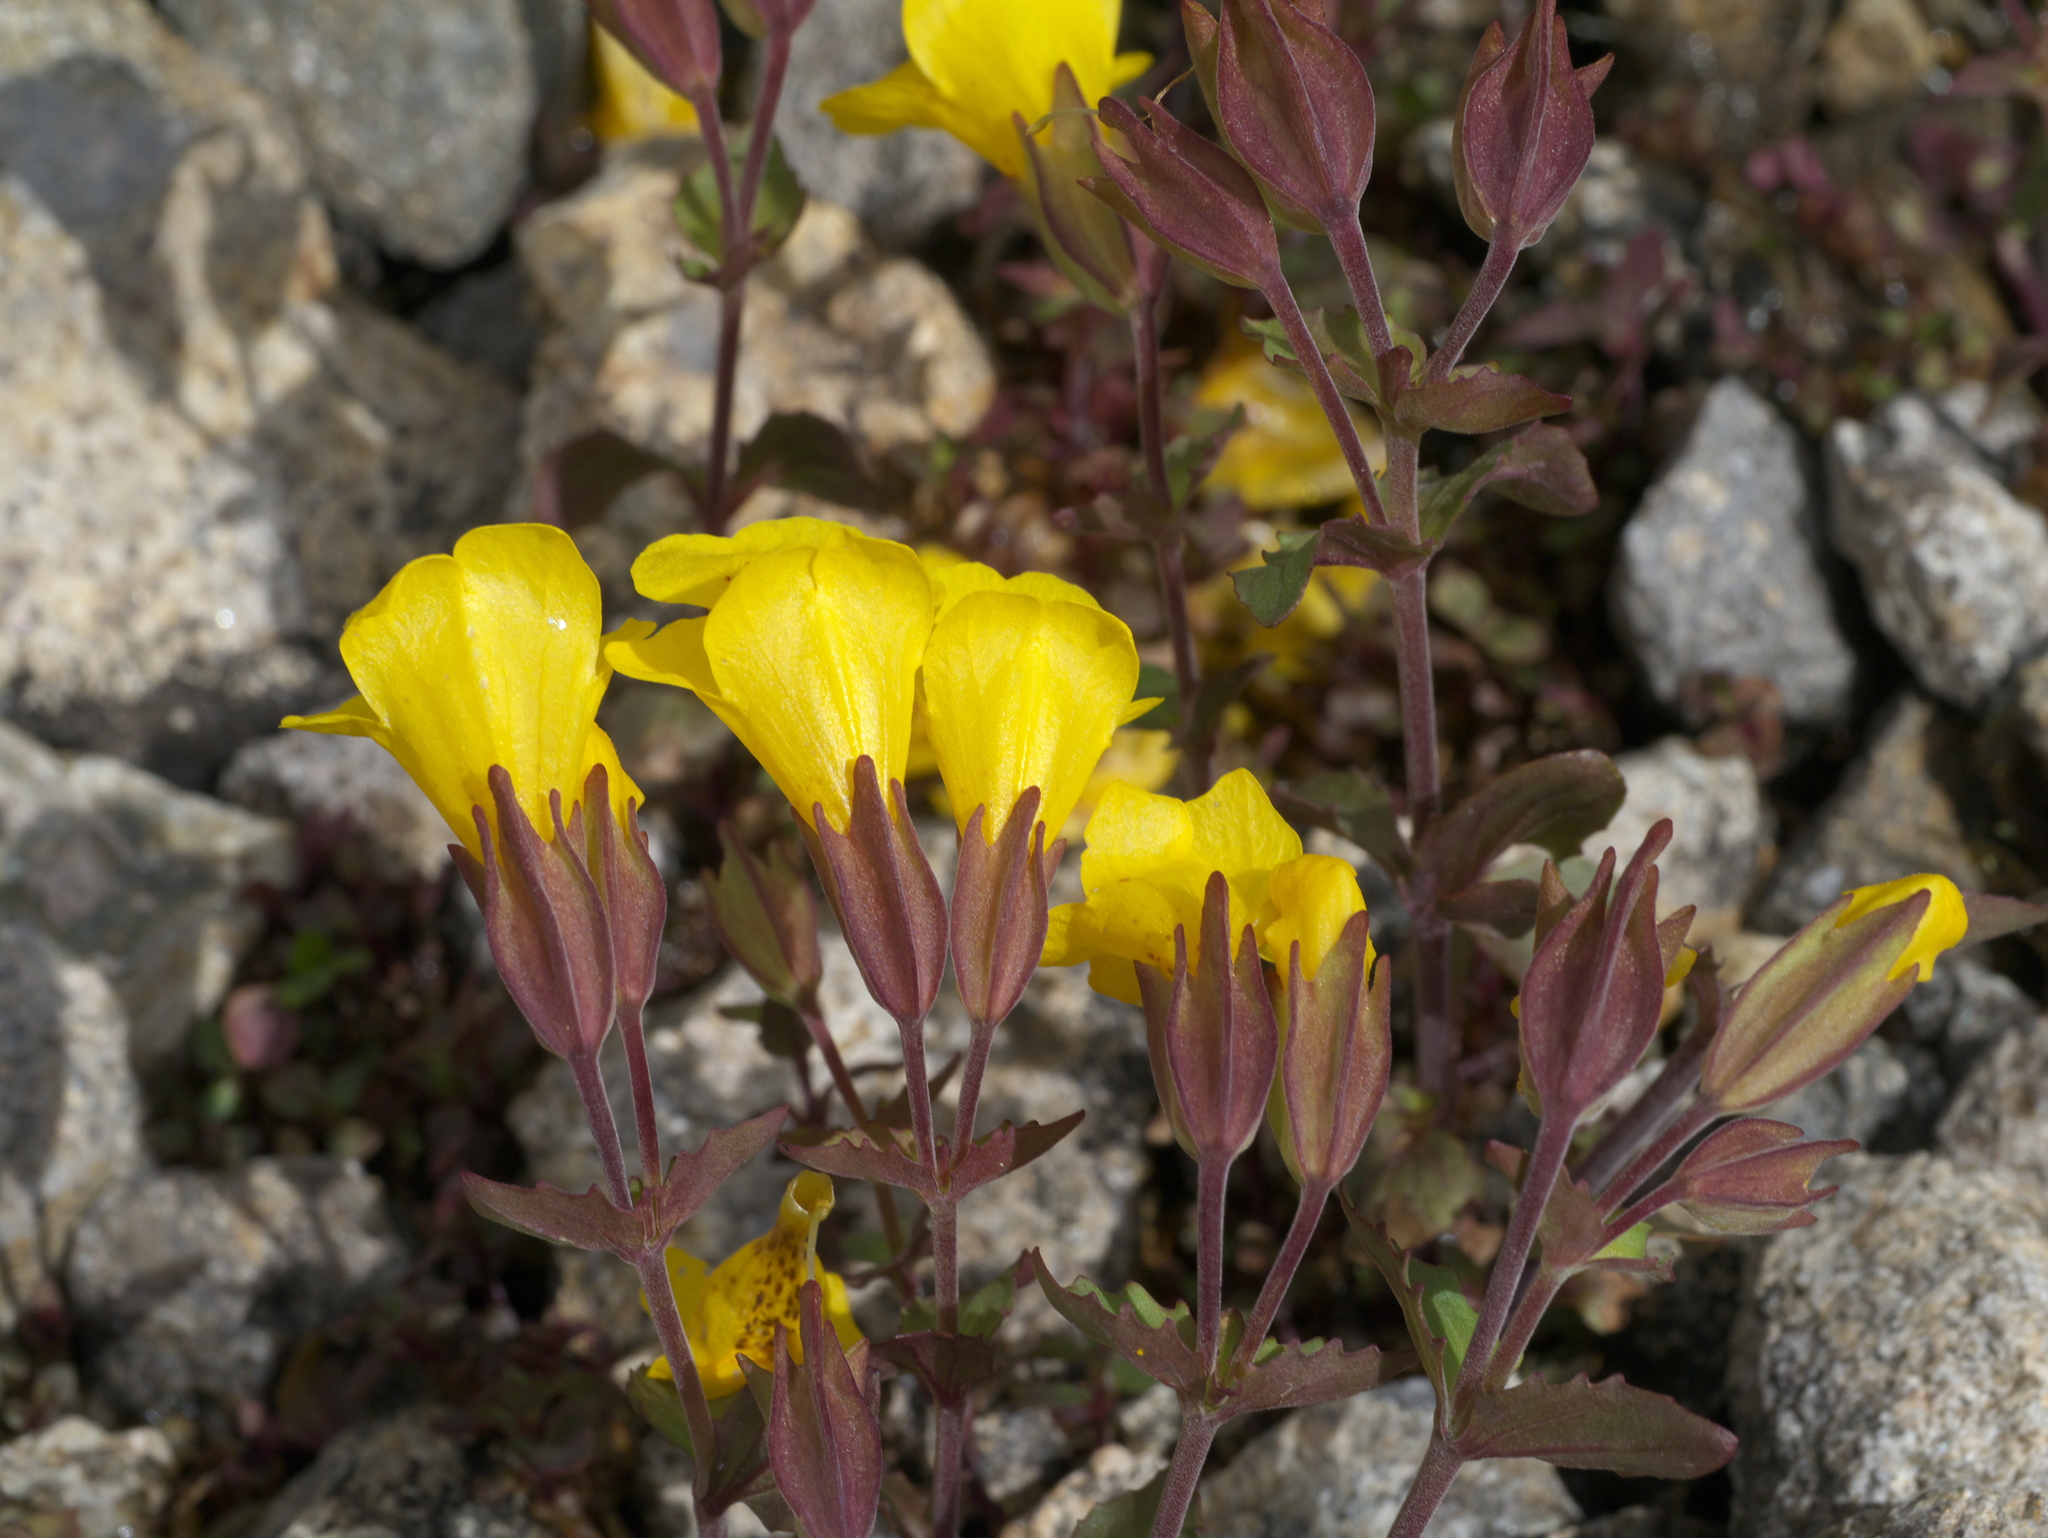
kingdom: Plantae
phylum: Tracheophyta
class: Magnoliopsida
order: Lamiales
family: Phrymaceae
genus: Erythranthe
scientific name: Erythranthe minor
